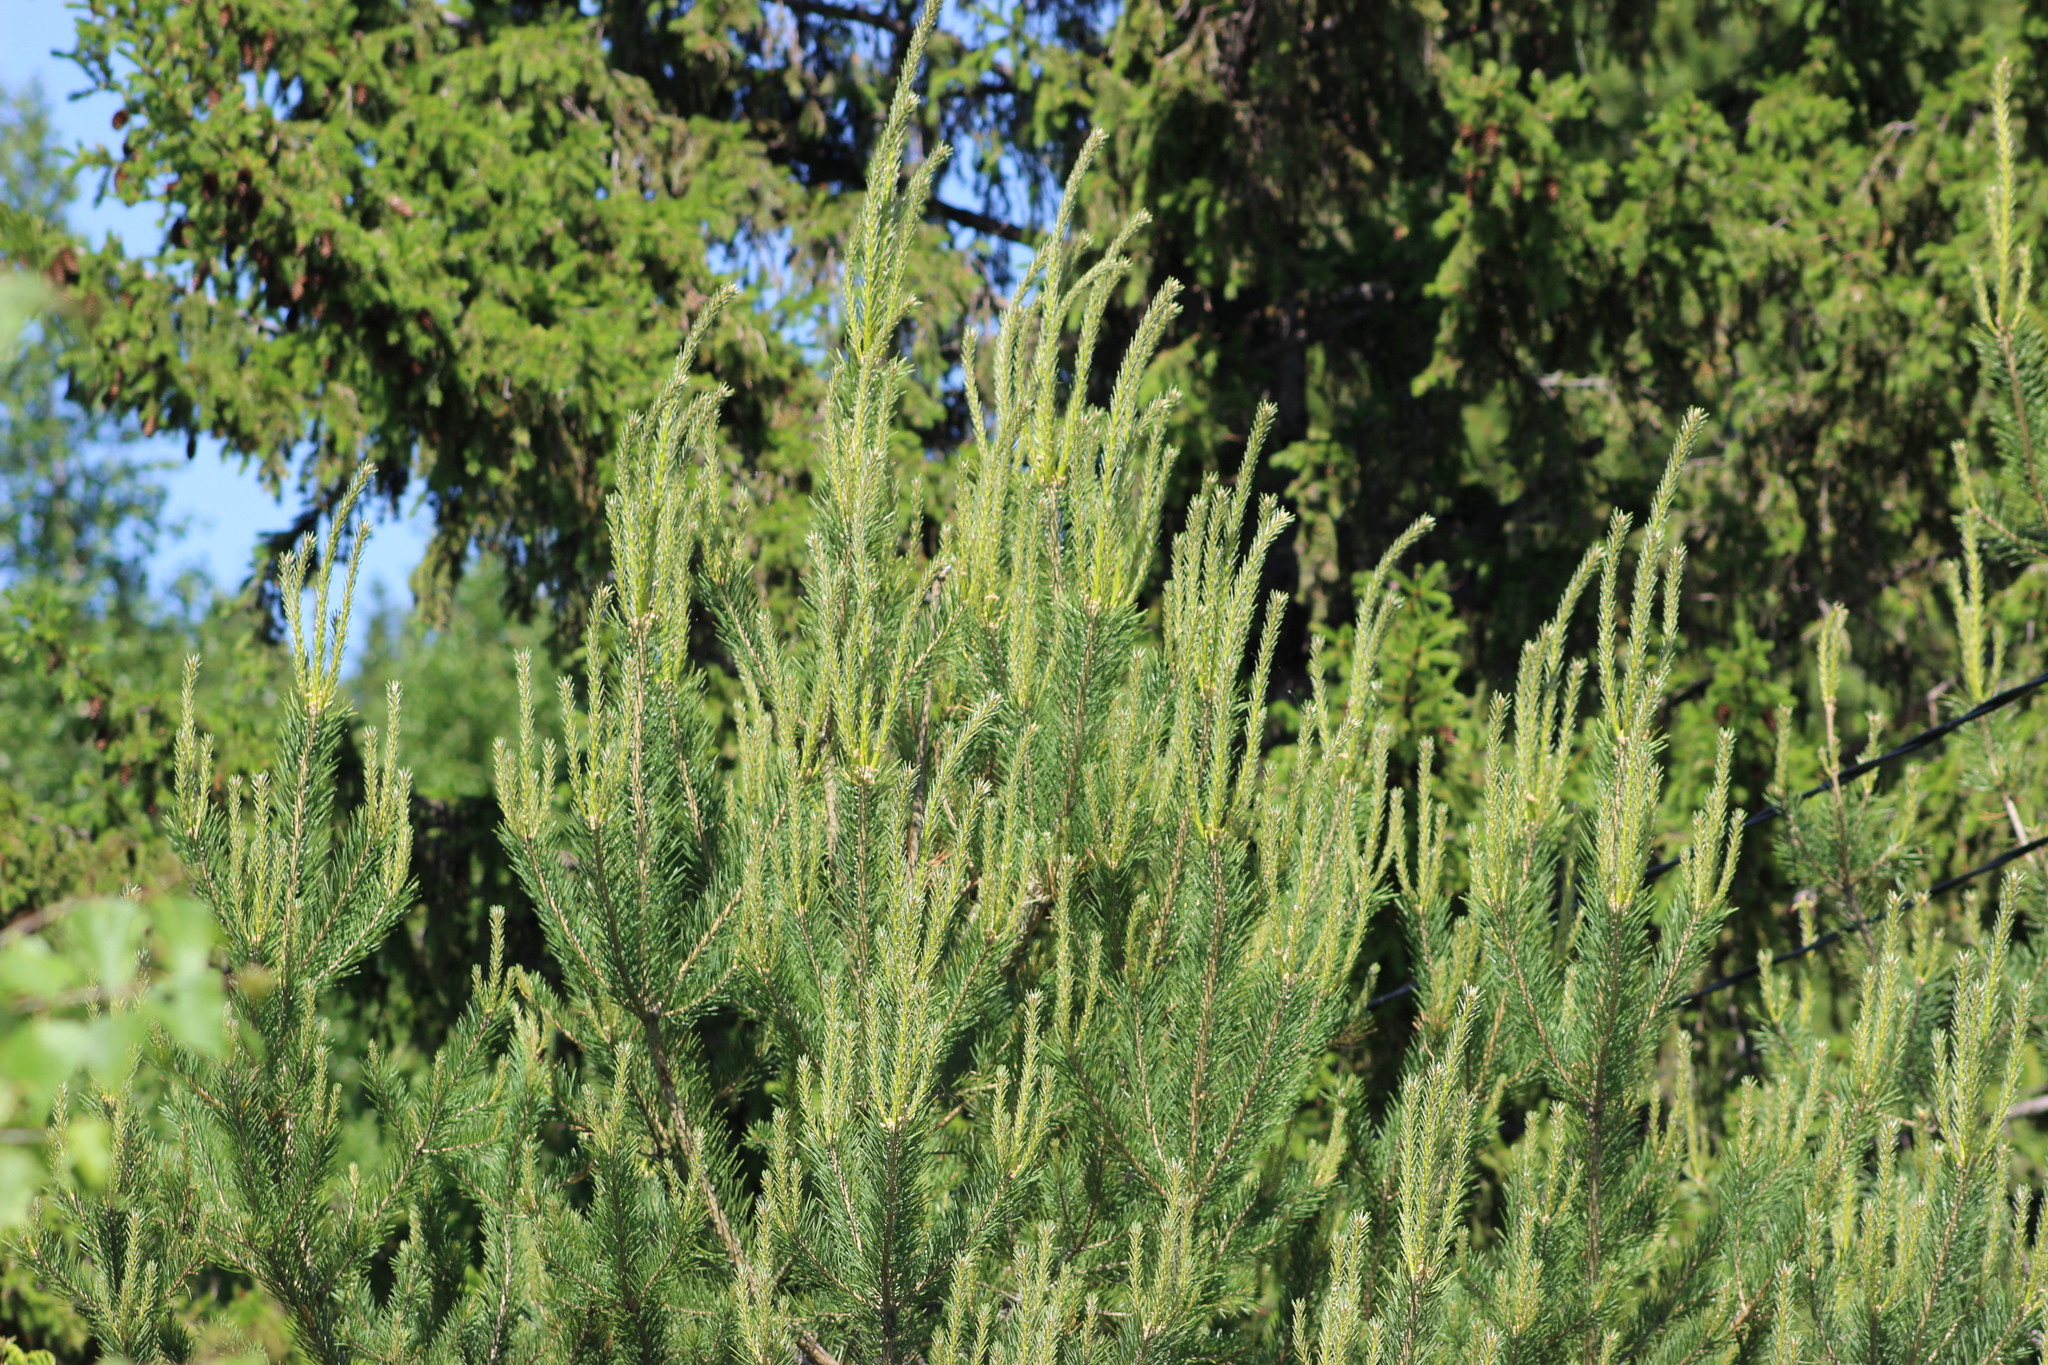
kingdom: Plantae
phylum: Tracheophyta
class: Pinopsida
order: Pinales
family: Pinaceae
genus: Pinus
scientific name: Pinus sylvestris
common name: Scots pine
